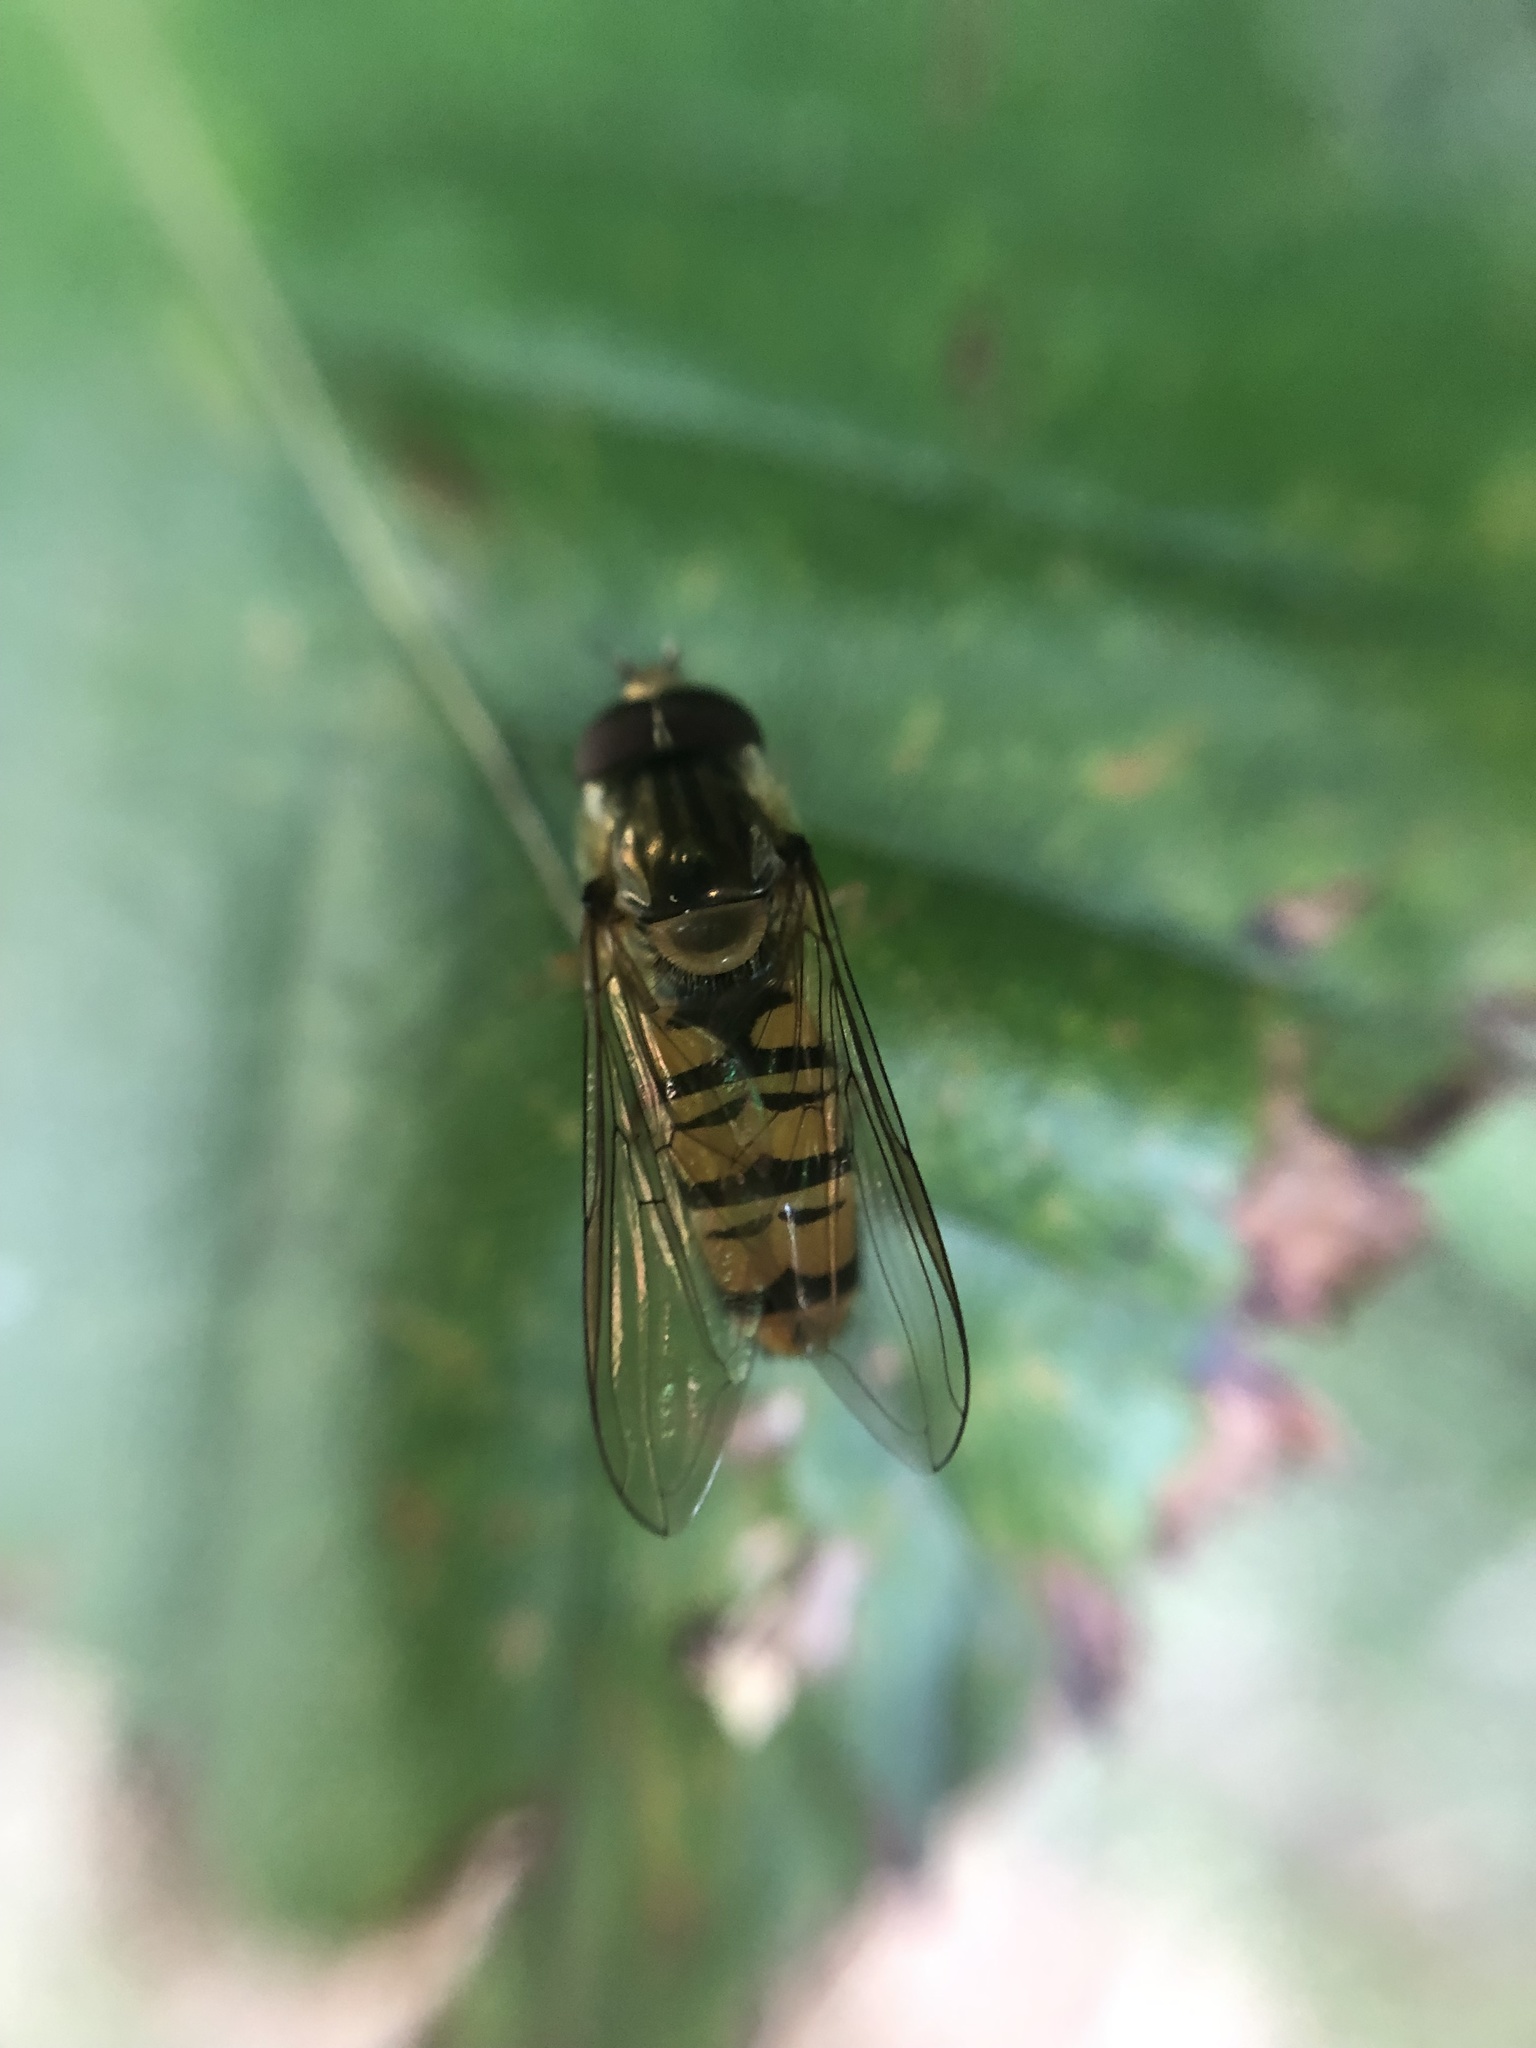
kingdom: Animalia
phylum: Arthropoda
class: Insecta
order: Diptera
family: Syrphidae
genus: Episyrphus
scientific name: Episyrphus balteatus
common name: Marmalade hoverfly
